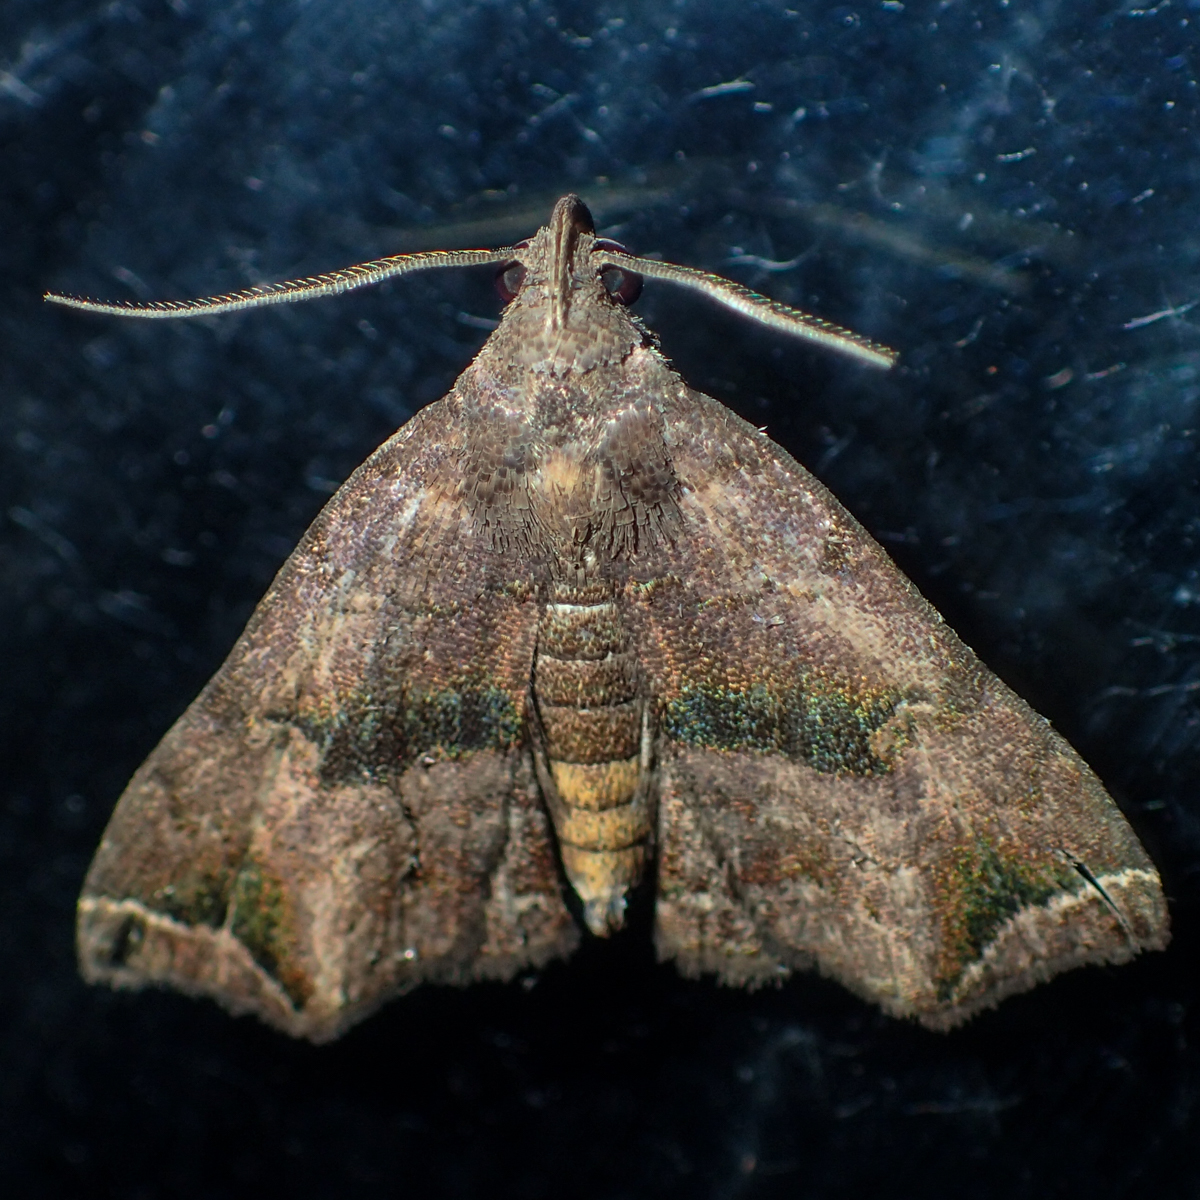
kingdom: Animalia
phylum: Arthropoda
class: Insecta
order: Lepidoptera
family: Erebidae
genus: Polypogon
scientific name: Polypogon biasalis
